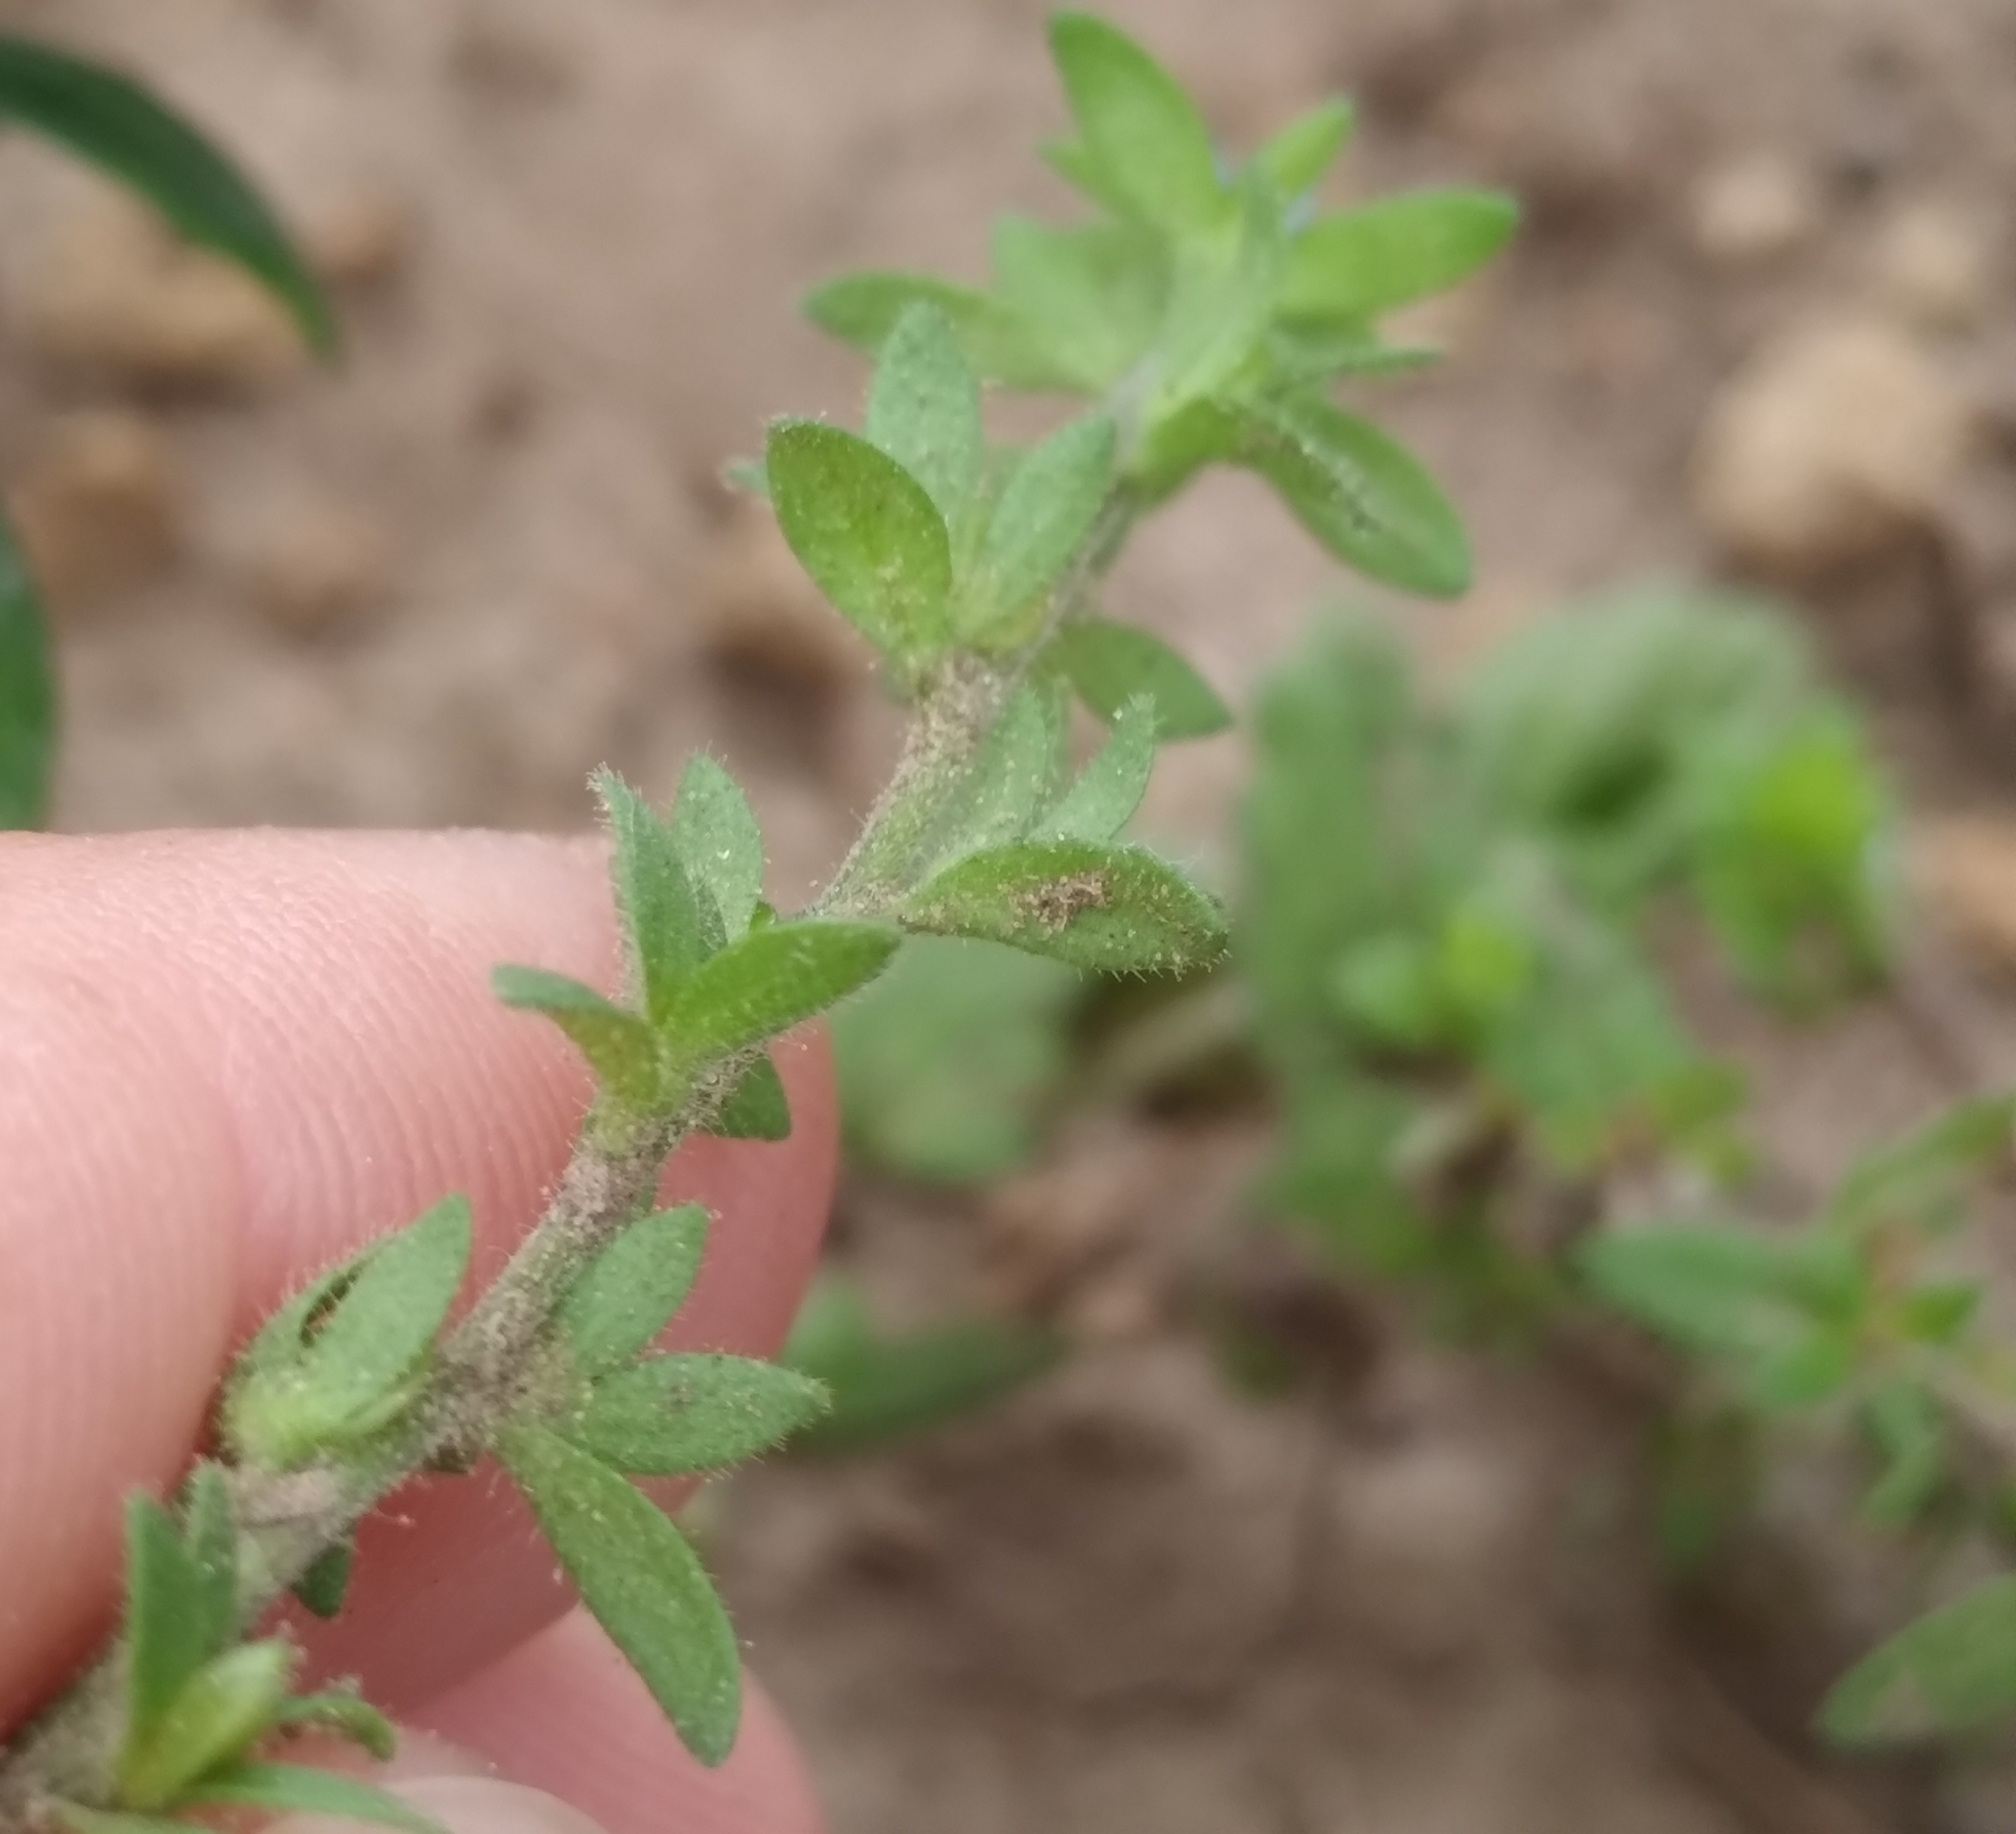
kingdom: Plantae
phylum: Tracheophyta
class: Magnoliopsida
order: Lamiales
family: Plantaginaceae
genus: Veronica
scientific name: Veronica arvensis
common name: Corn speedwell
